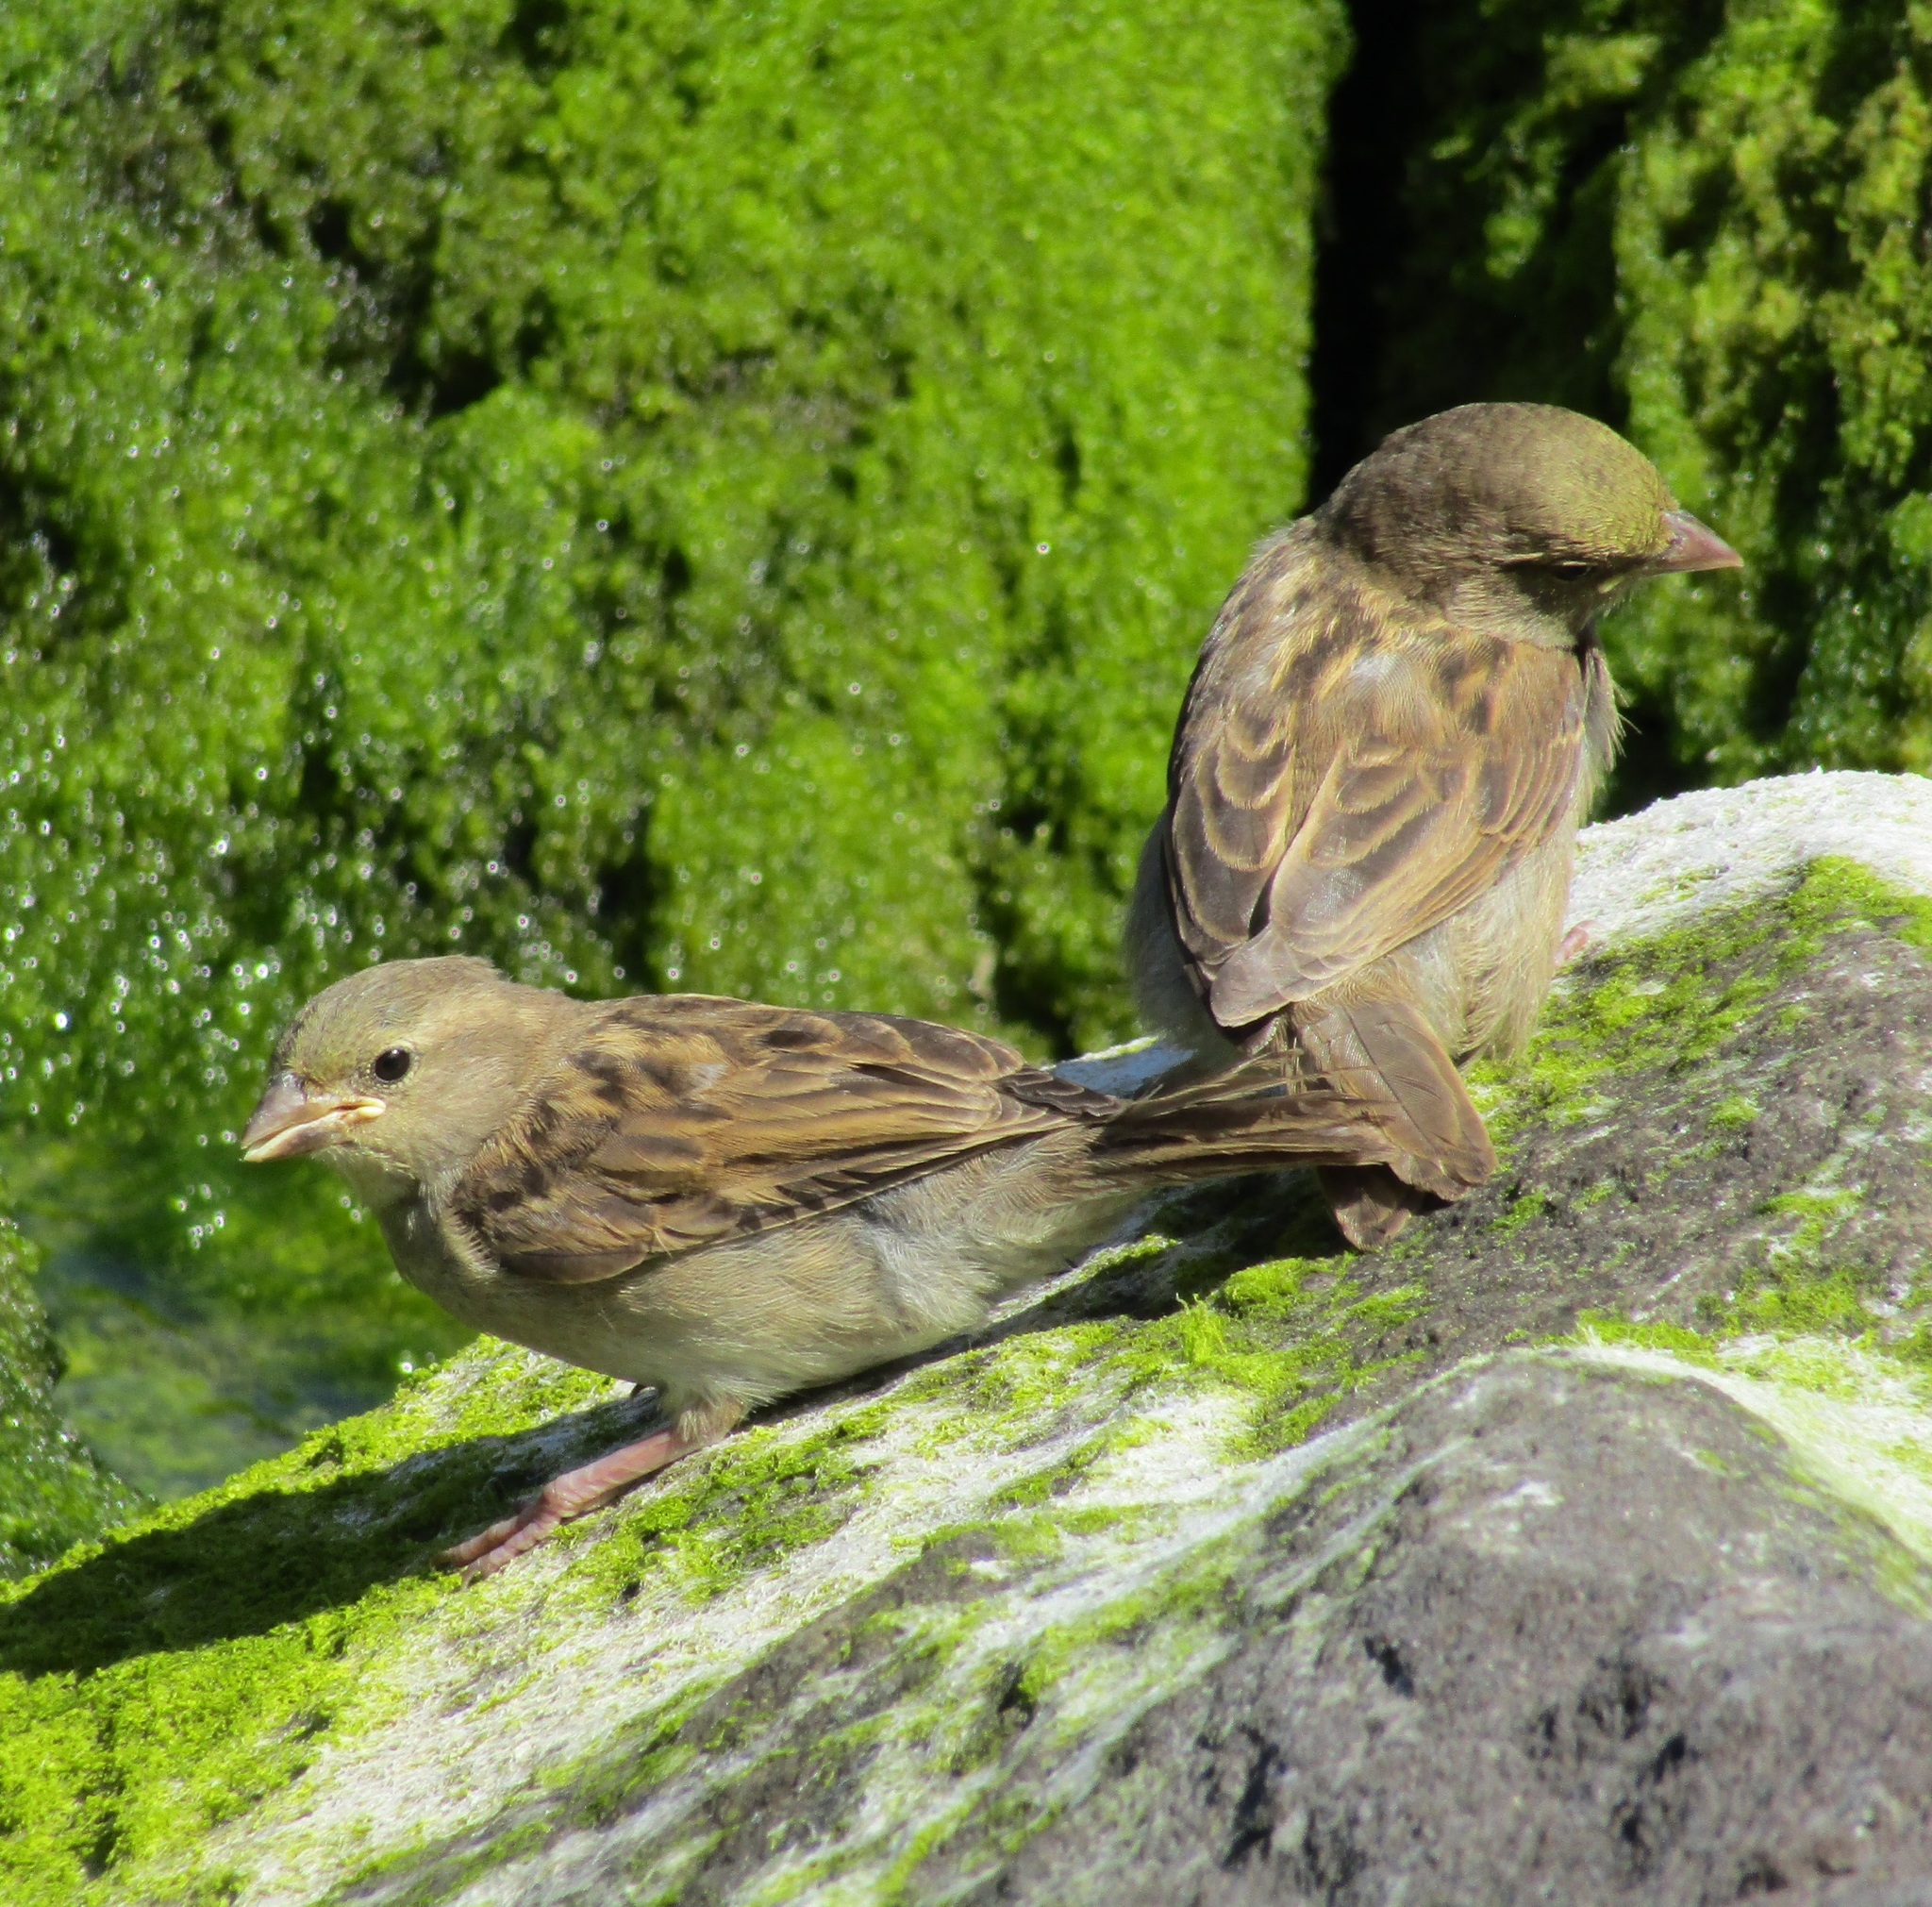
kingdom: Animalia
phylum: Chordata
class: Aves
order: Passeriformes
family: Passeridae
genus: Passer
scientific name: Passer domesticus
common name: House sparrow
